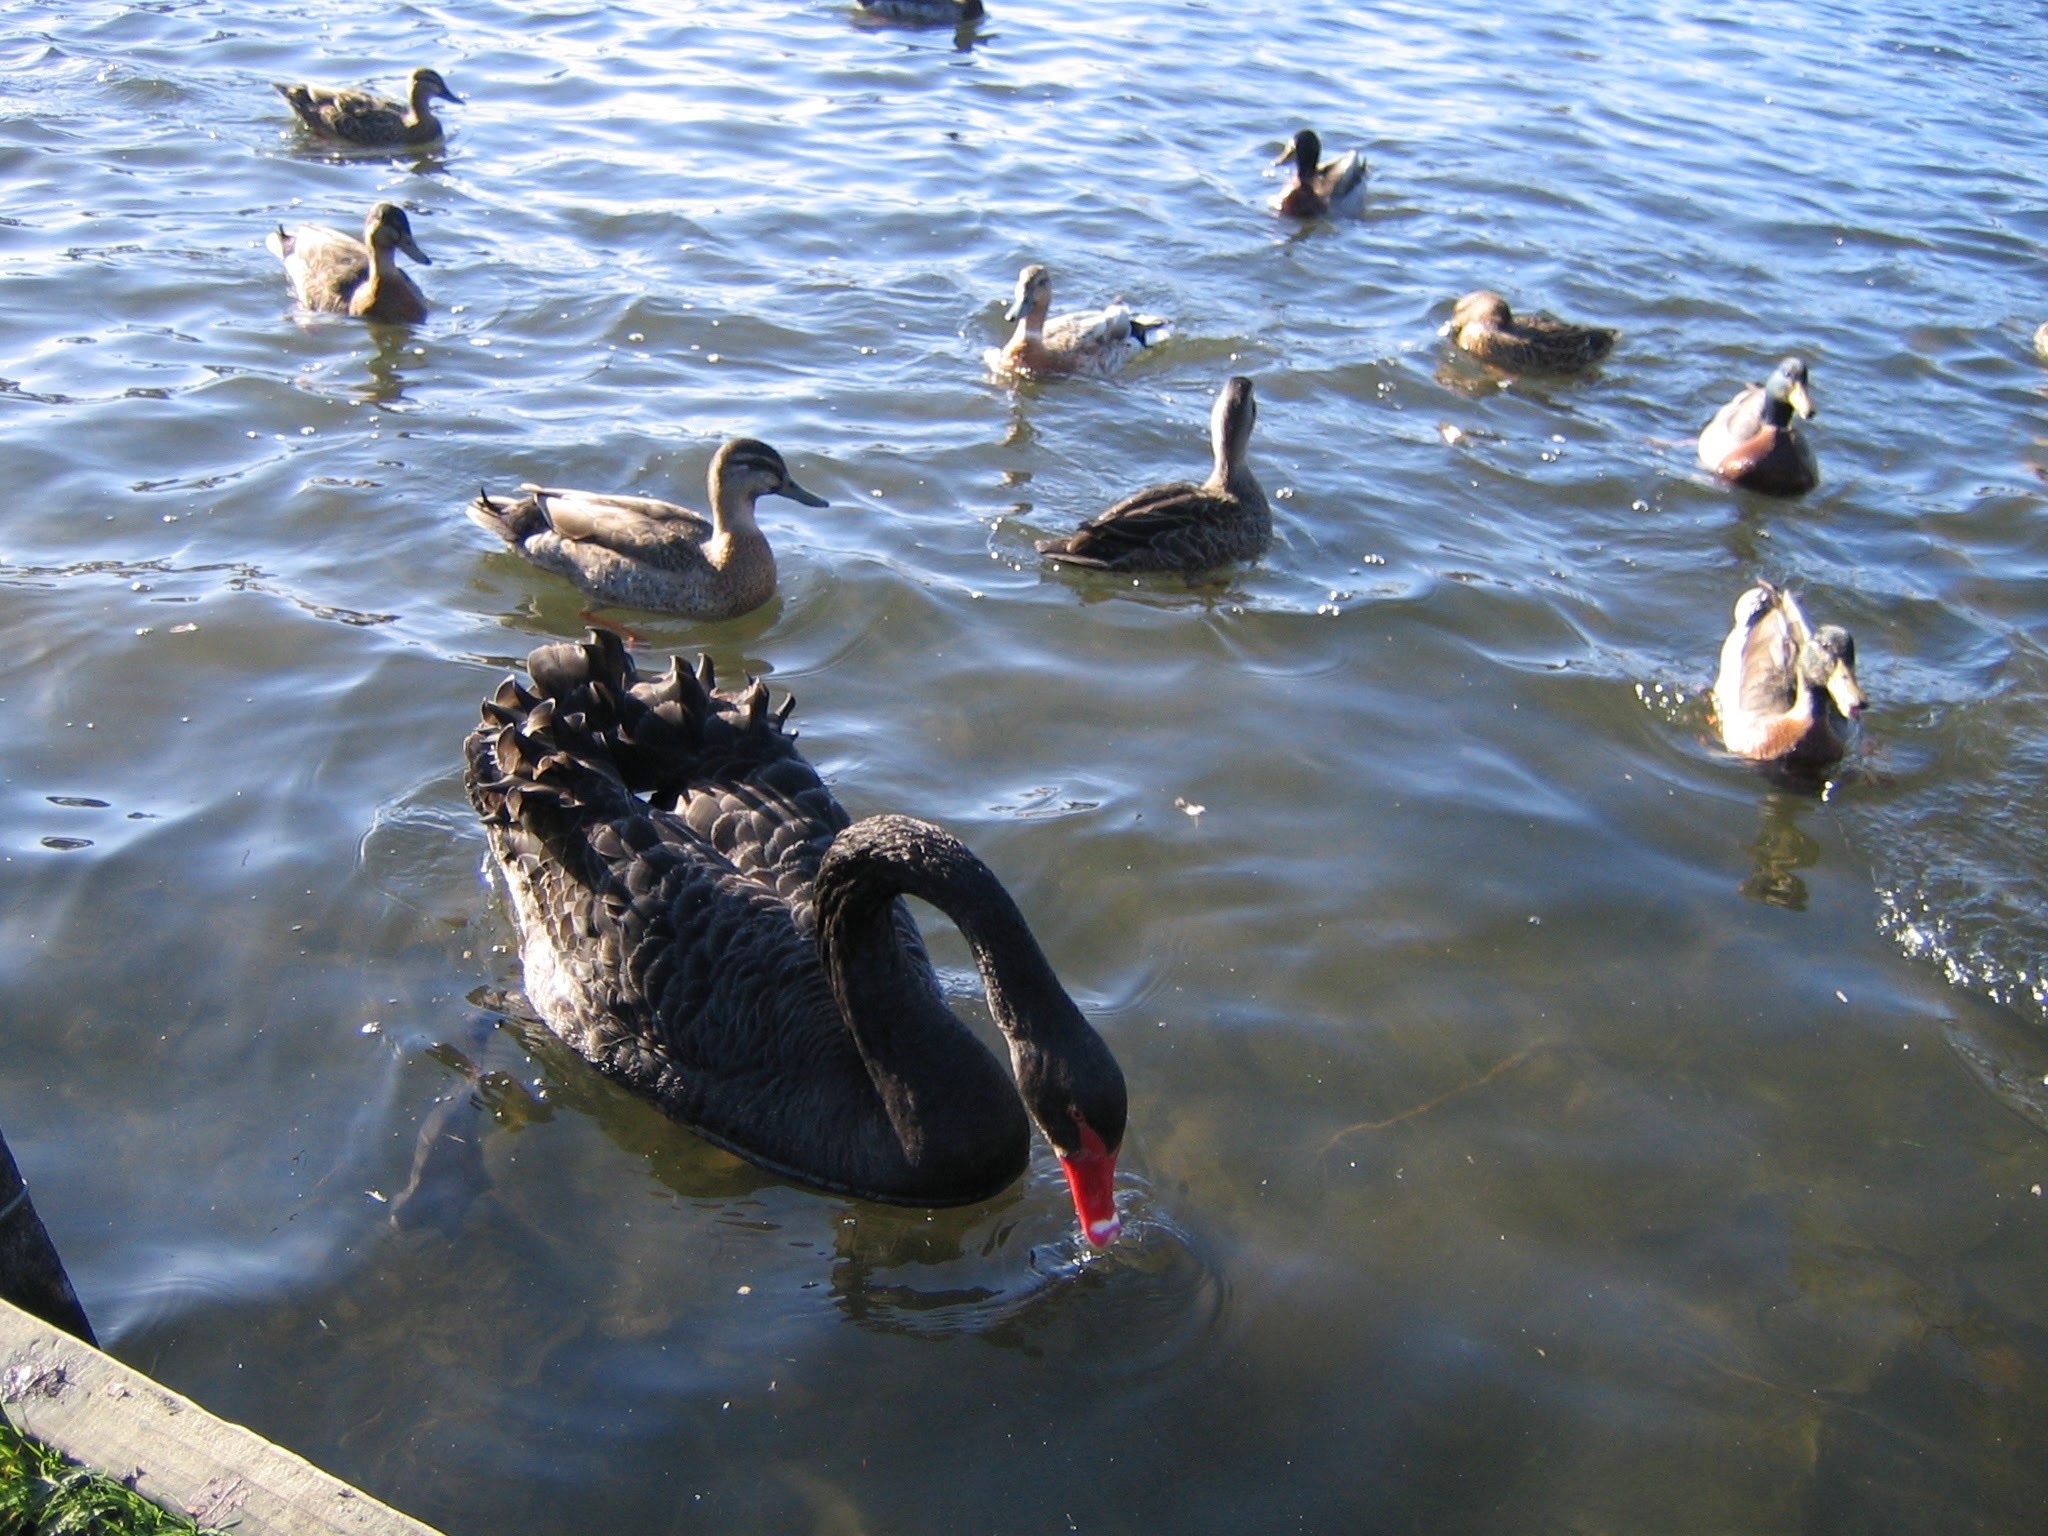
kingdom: Animalia
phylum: Chordata
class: Aves
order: Anseriformes
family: Anatidae
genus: Cygnus
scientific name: Cygnus atratus
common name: Black swan
